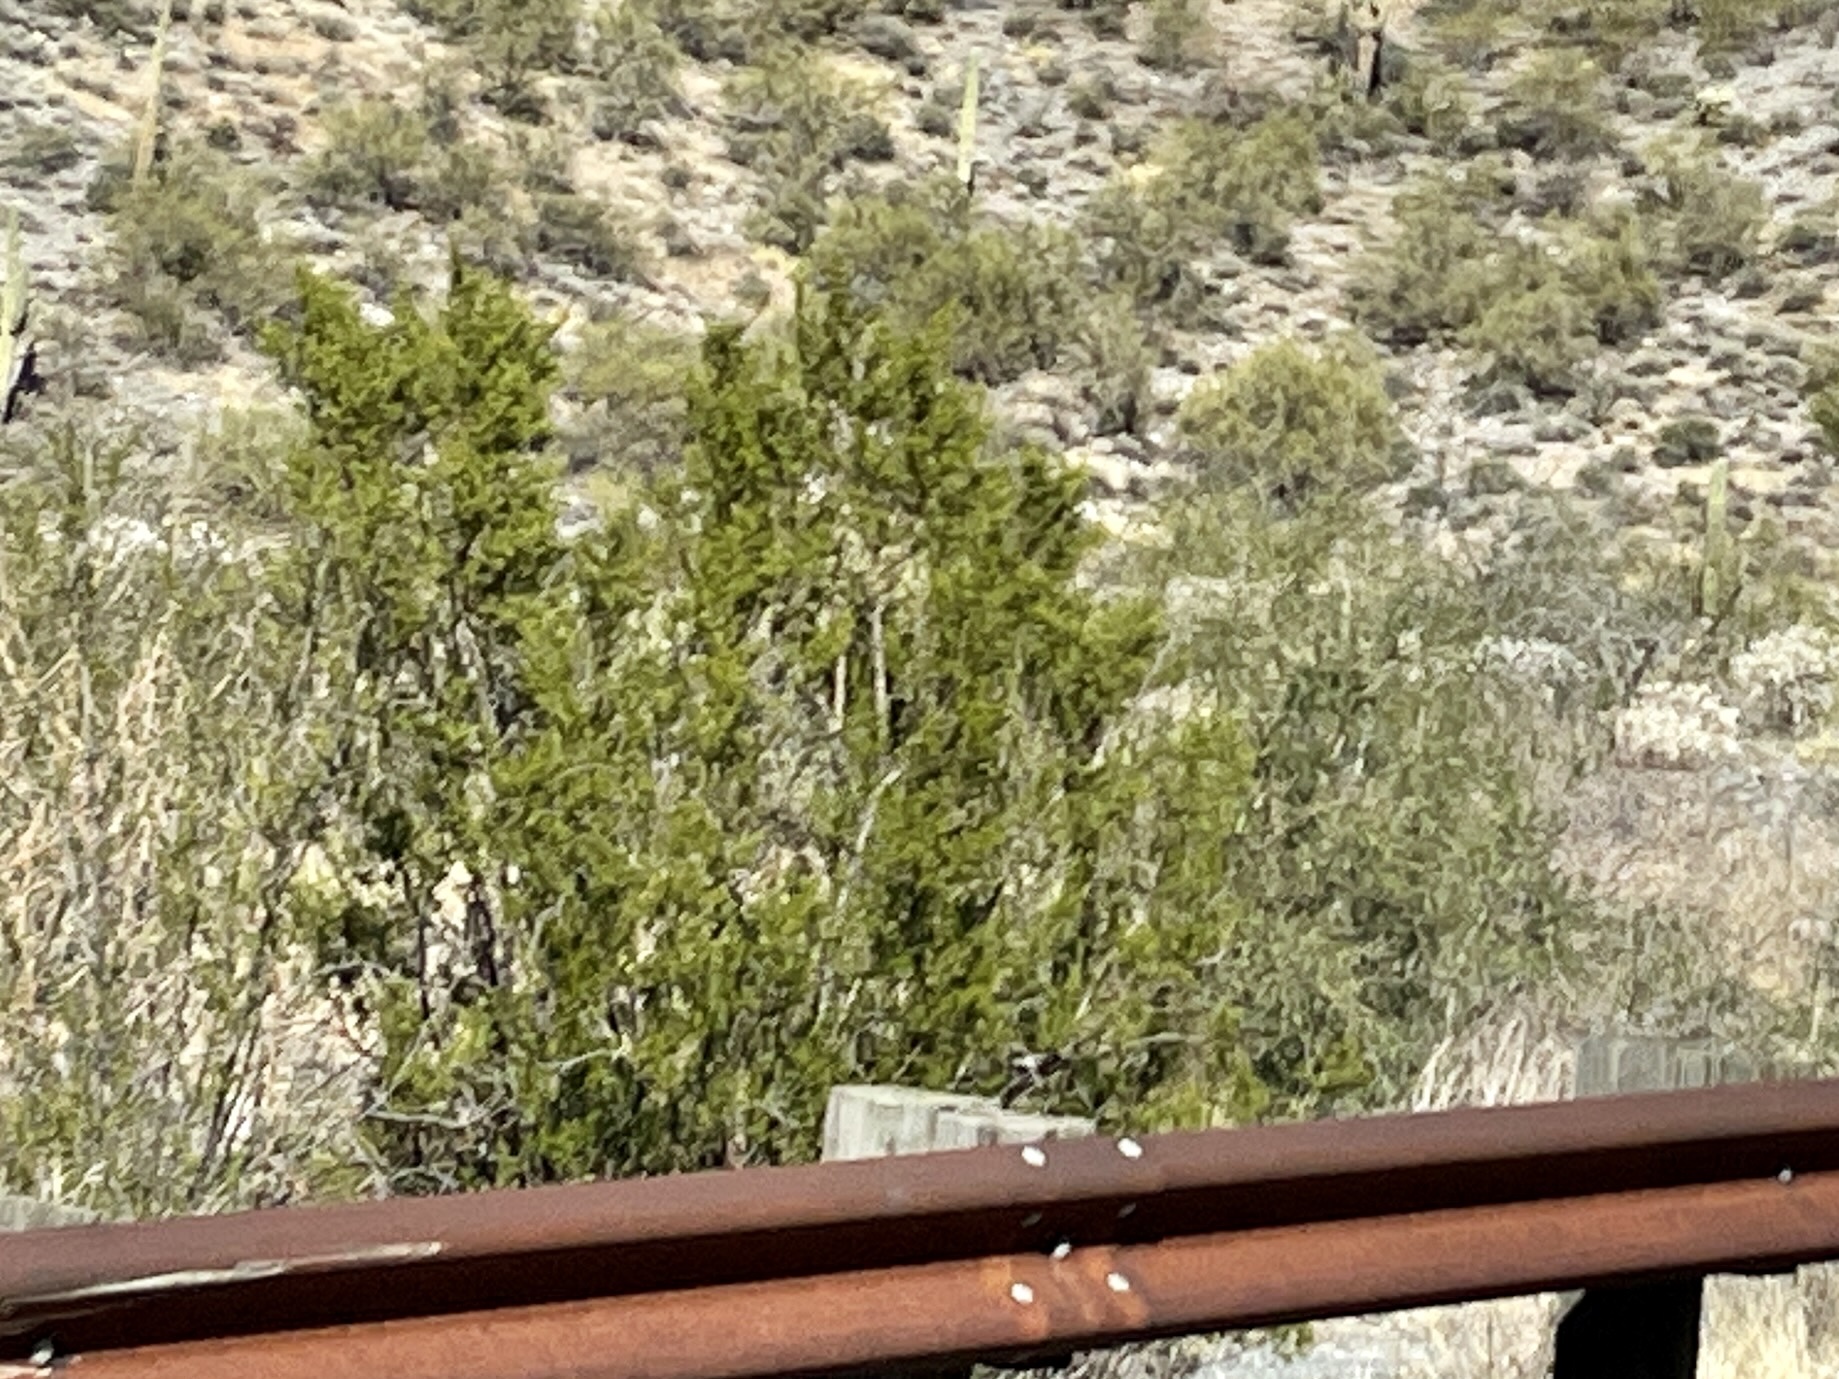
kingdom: Plantae
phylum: Tracheophyta
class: Magnoliopsida
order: Zygophyllales
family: Zygophyllaceae
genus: Larrea
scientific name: Larrea tridentata
